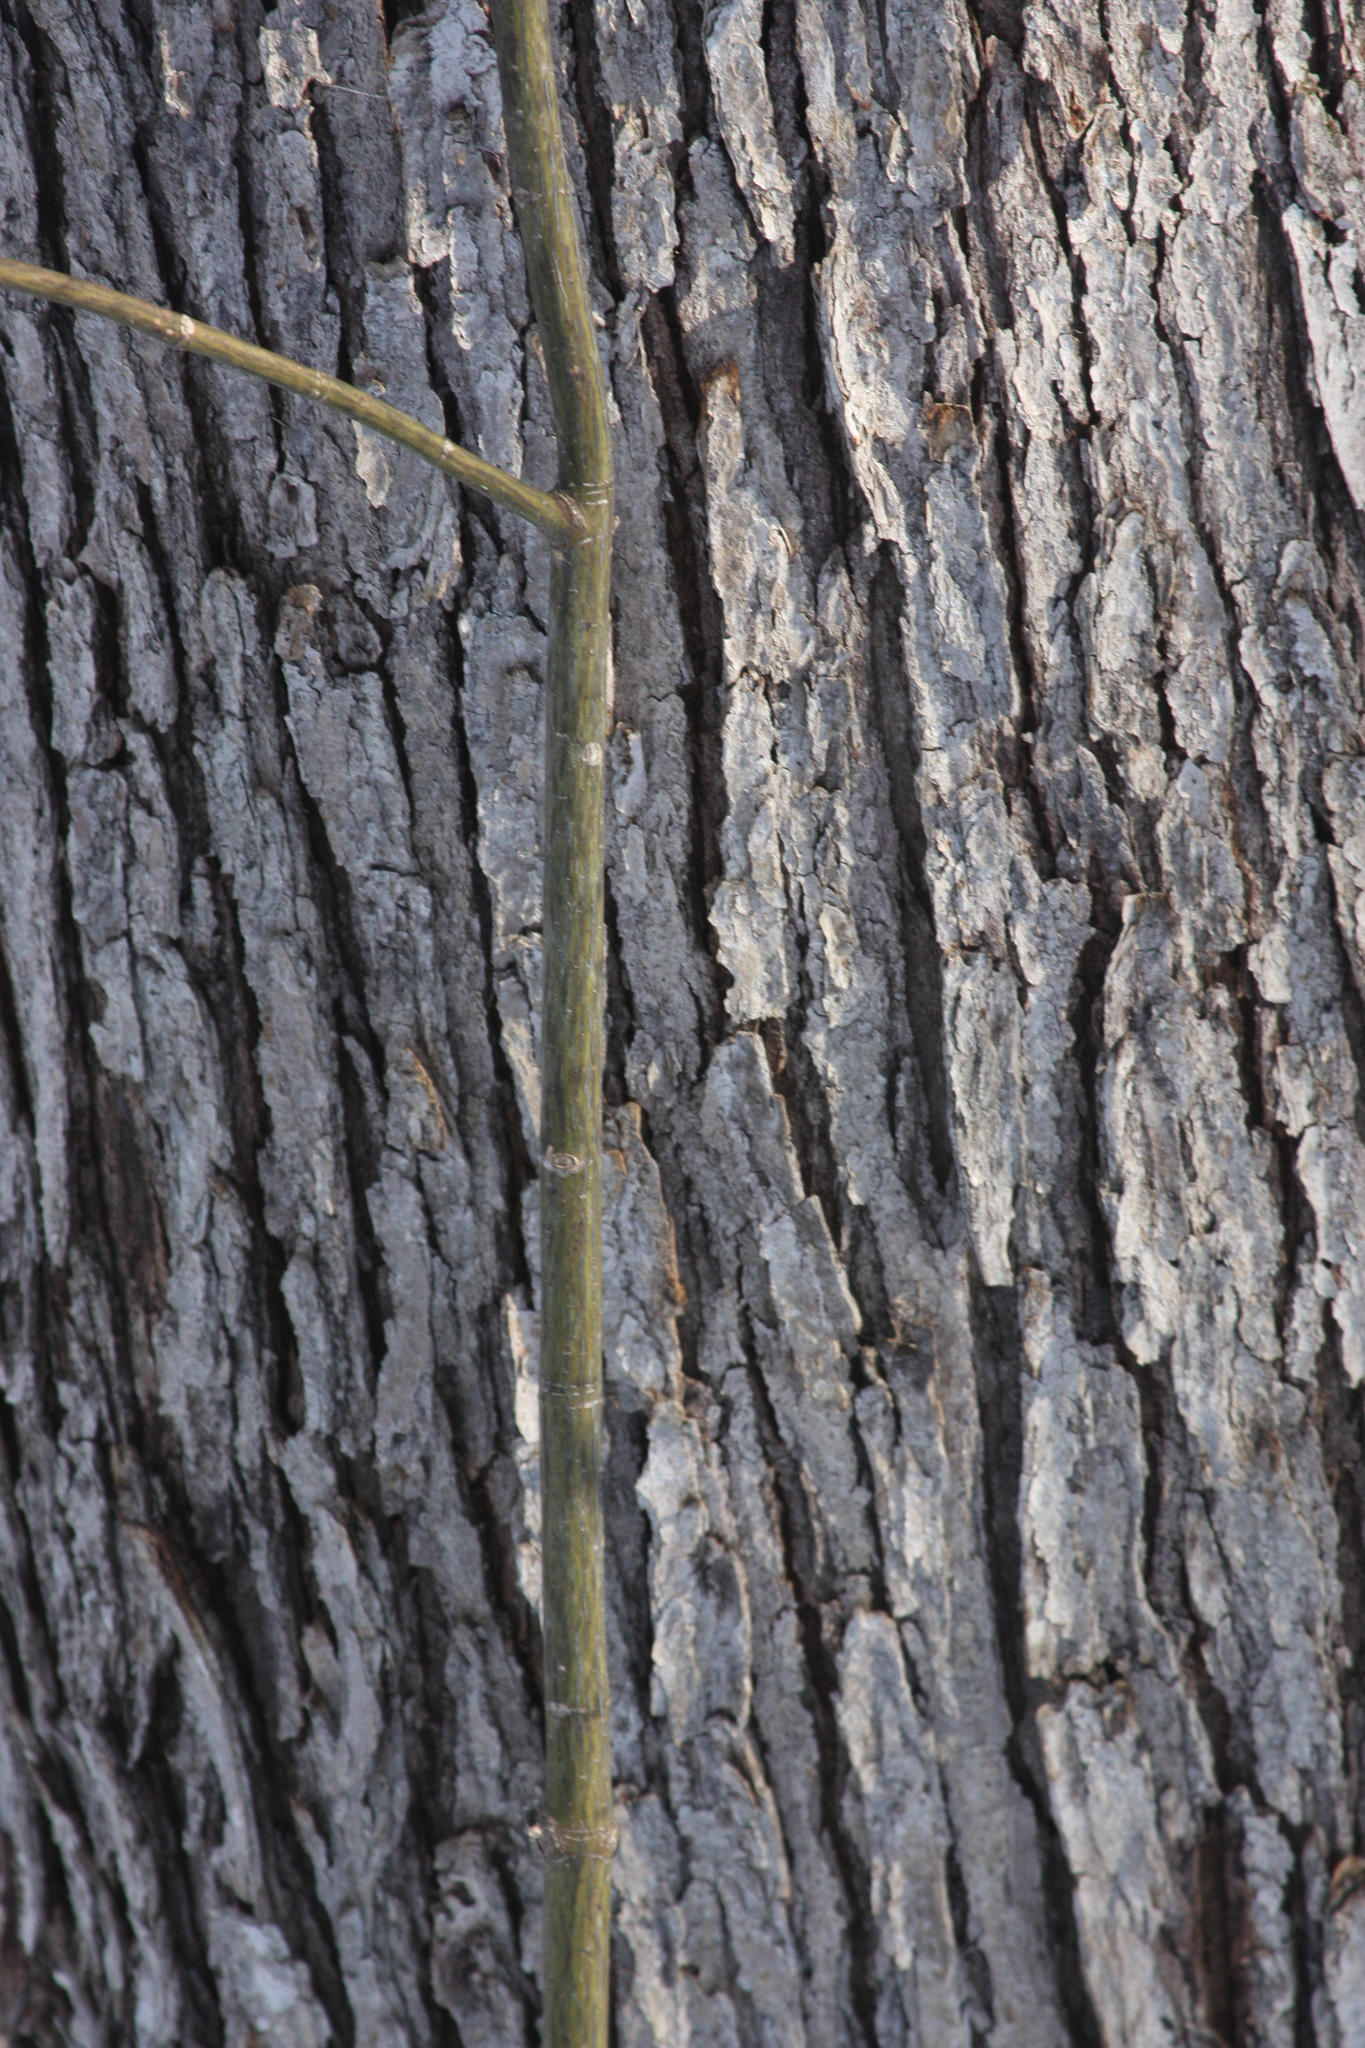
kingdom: Plantae
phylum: Tracheophyta
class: Magnoliopsida
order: Sapindales
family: Sapindaceae
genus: Acer
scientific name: Acer pensylvanicum
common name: Moosewood
